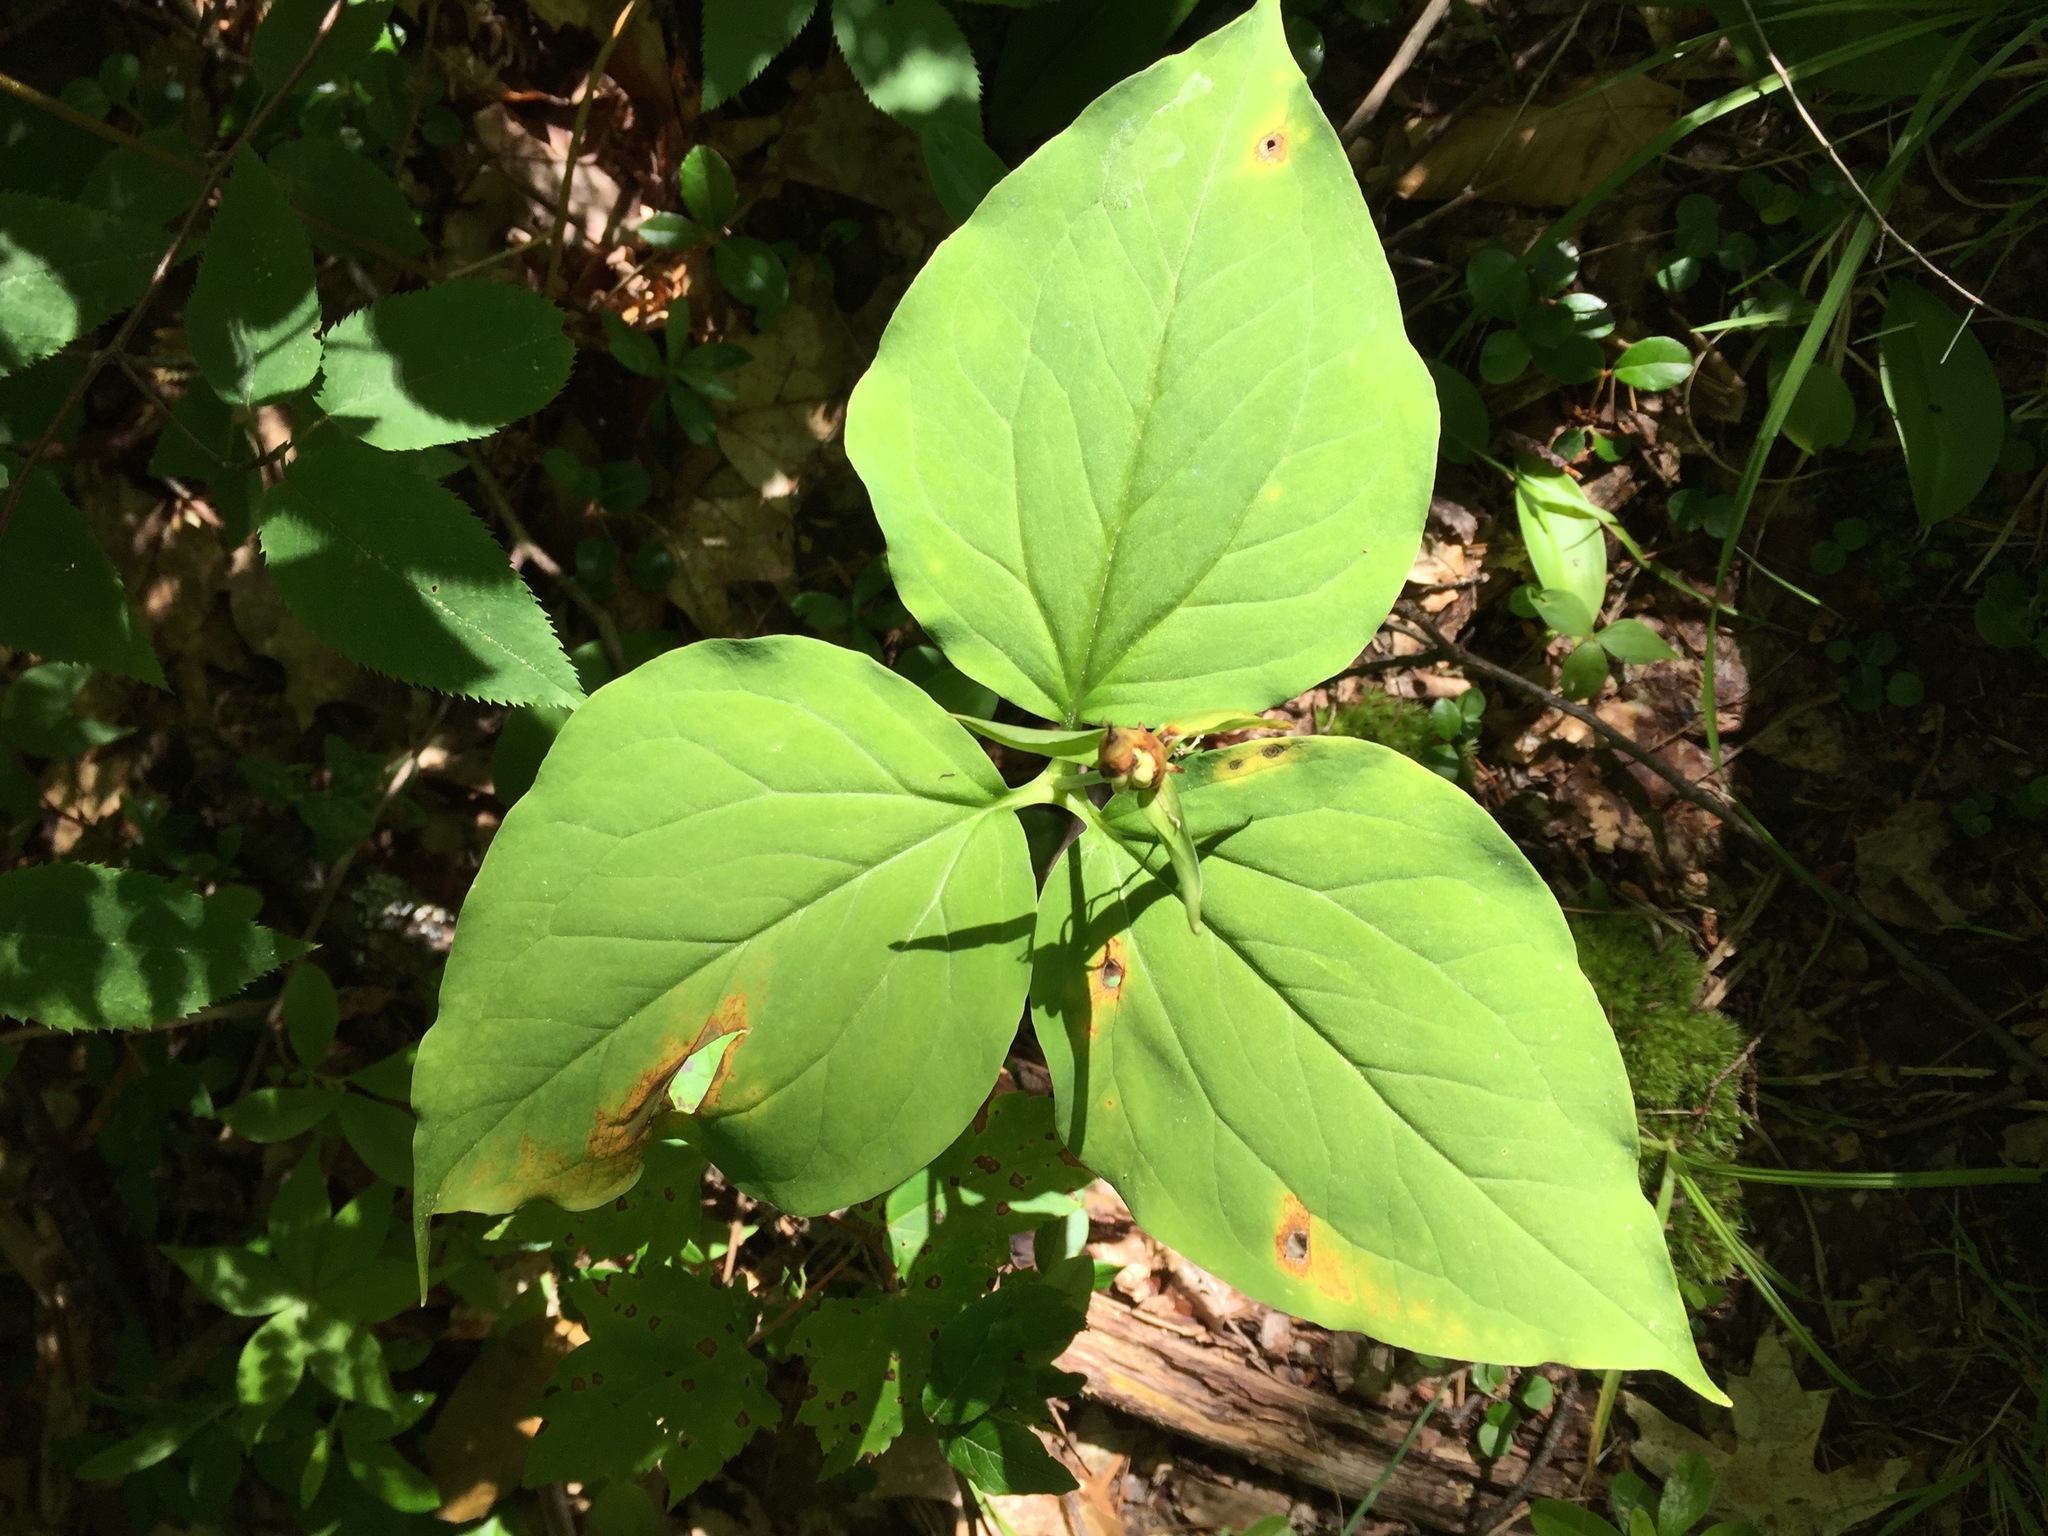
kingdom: Plantae
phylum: Tracheophyta
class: Liliopsida
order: Liliales
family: Melanthiaceae
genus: Trillium
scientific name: Trillium undulatum
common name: Paint trillium
